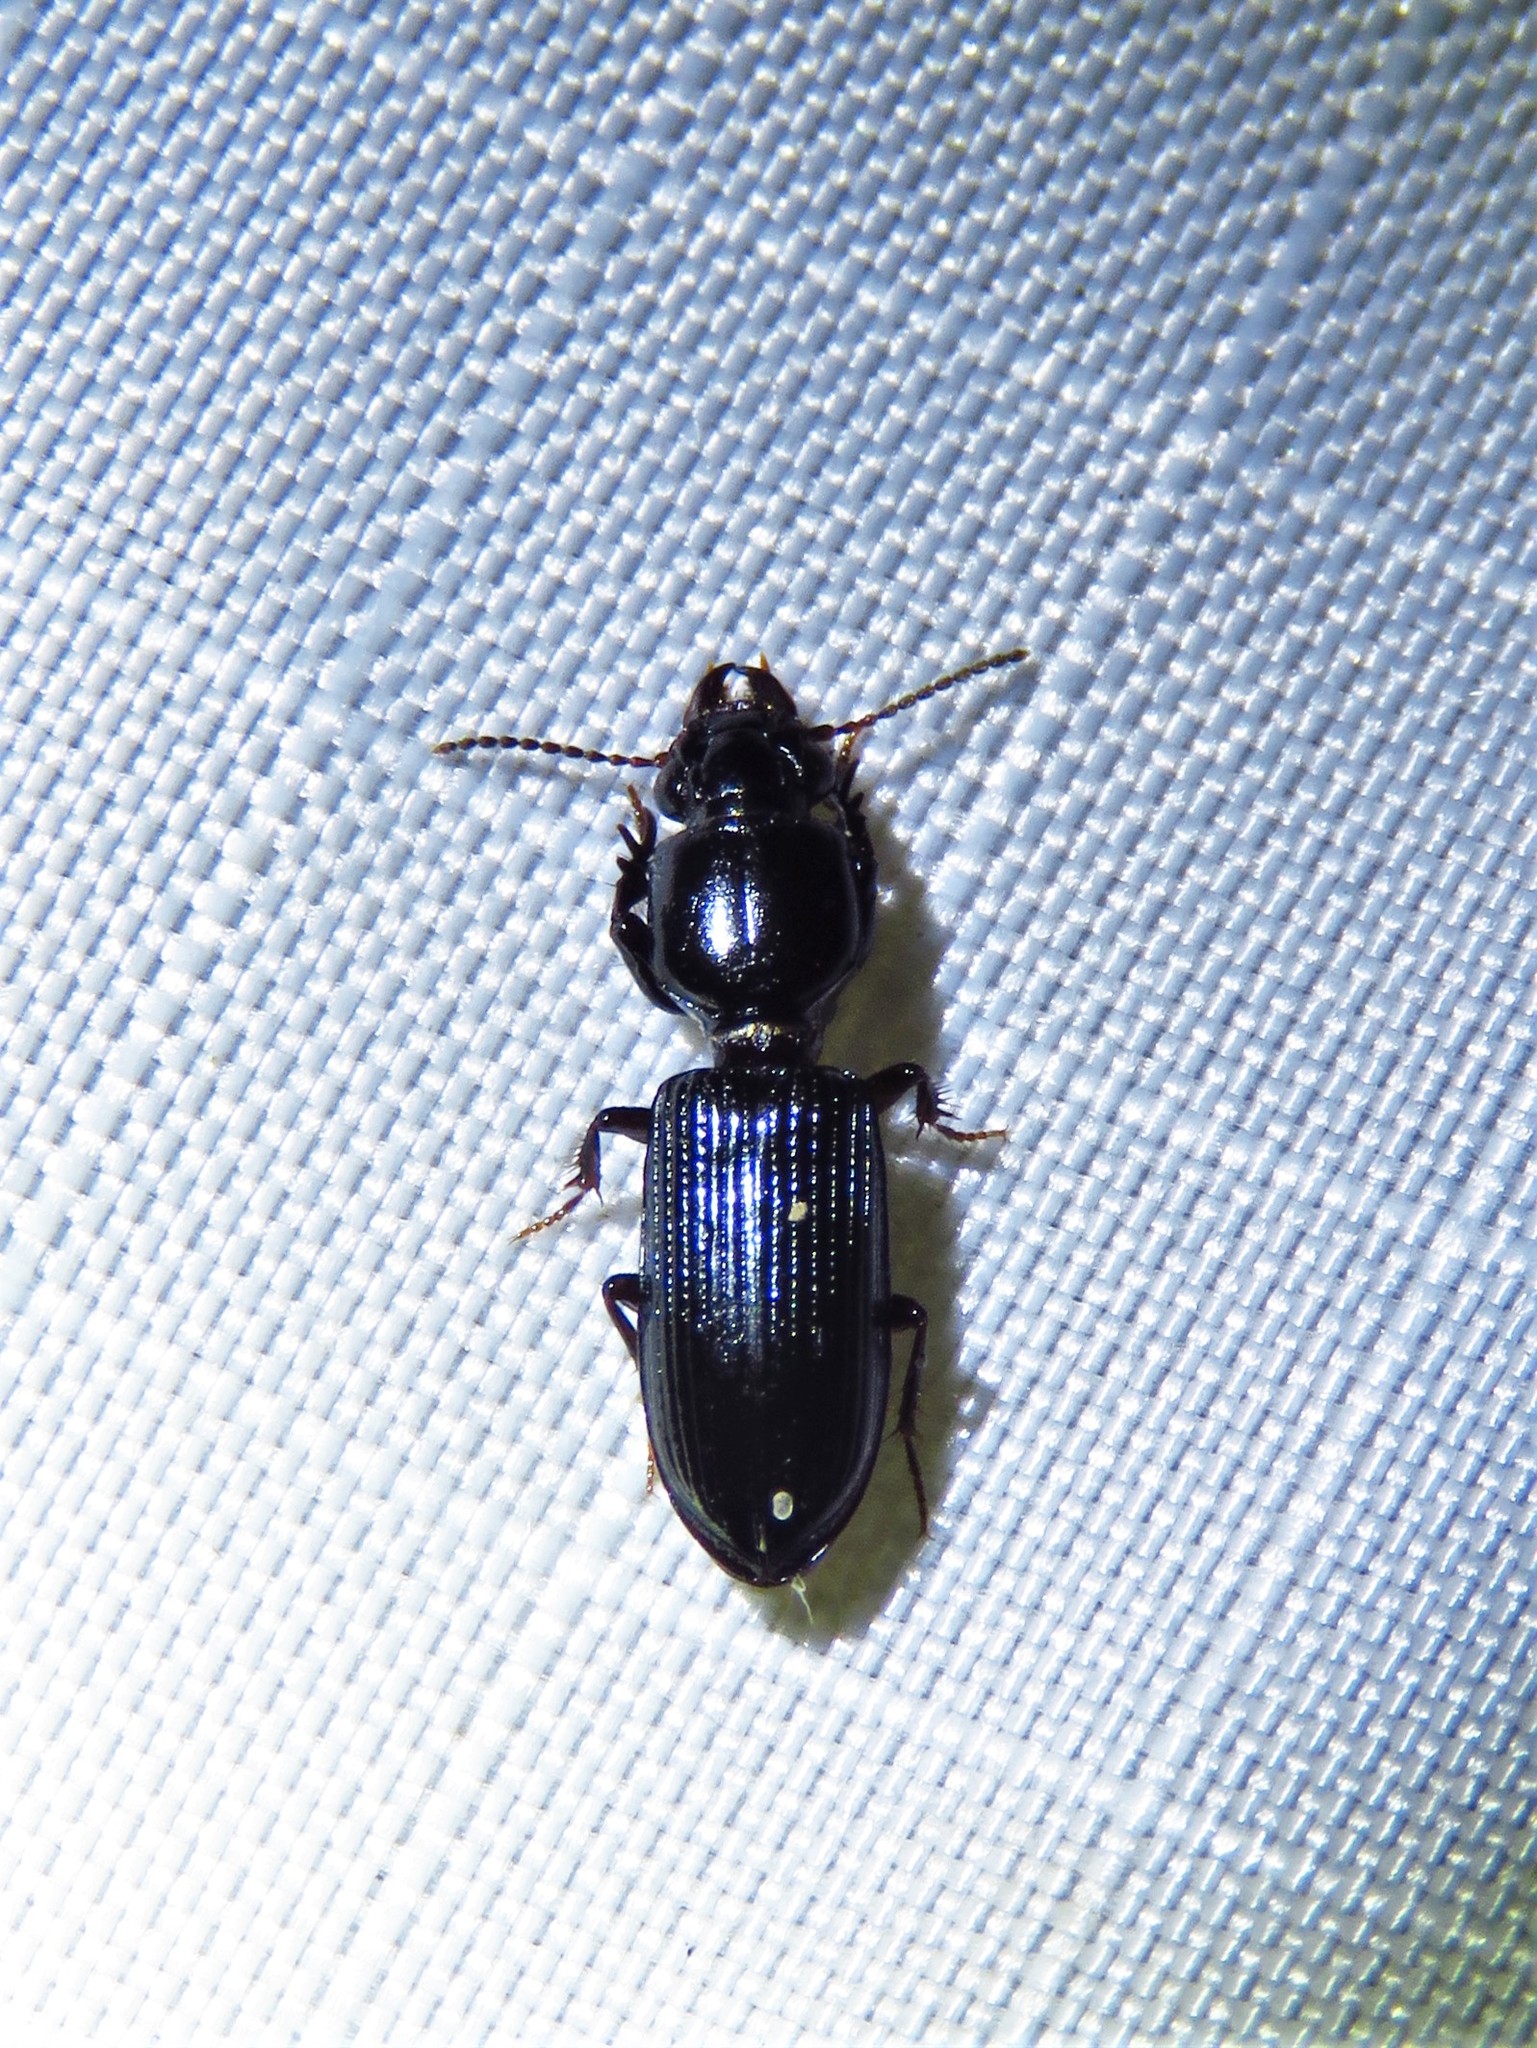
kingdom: Animalia
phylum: Arthropoda
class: Insecta
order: Coleoptera
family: Carabidae
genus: Semiclivina
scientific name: Semiclivina dentipes
